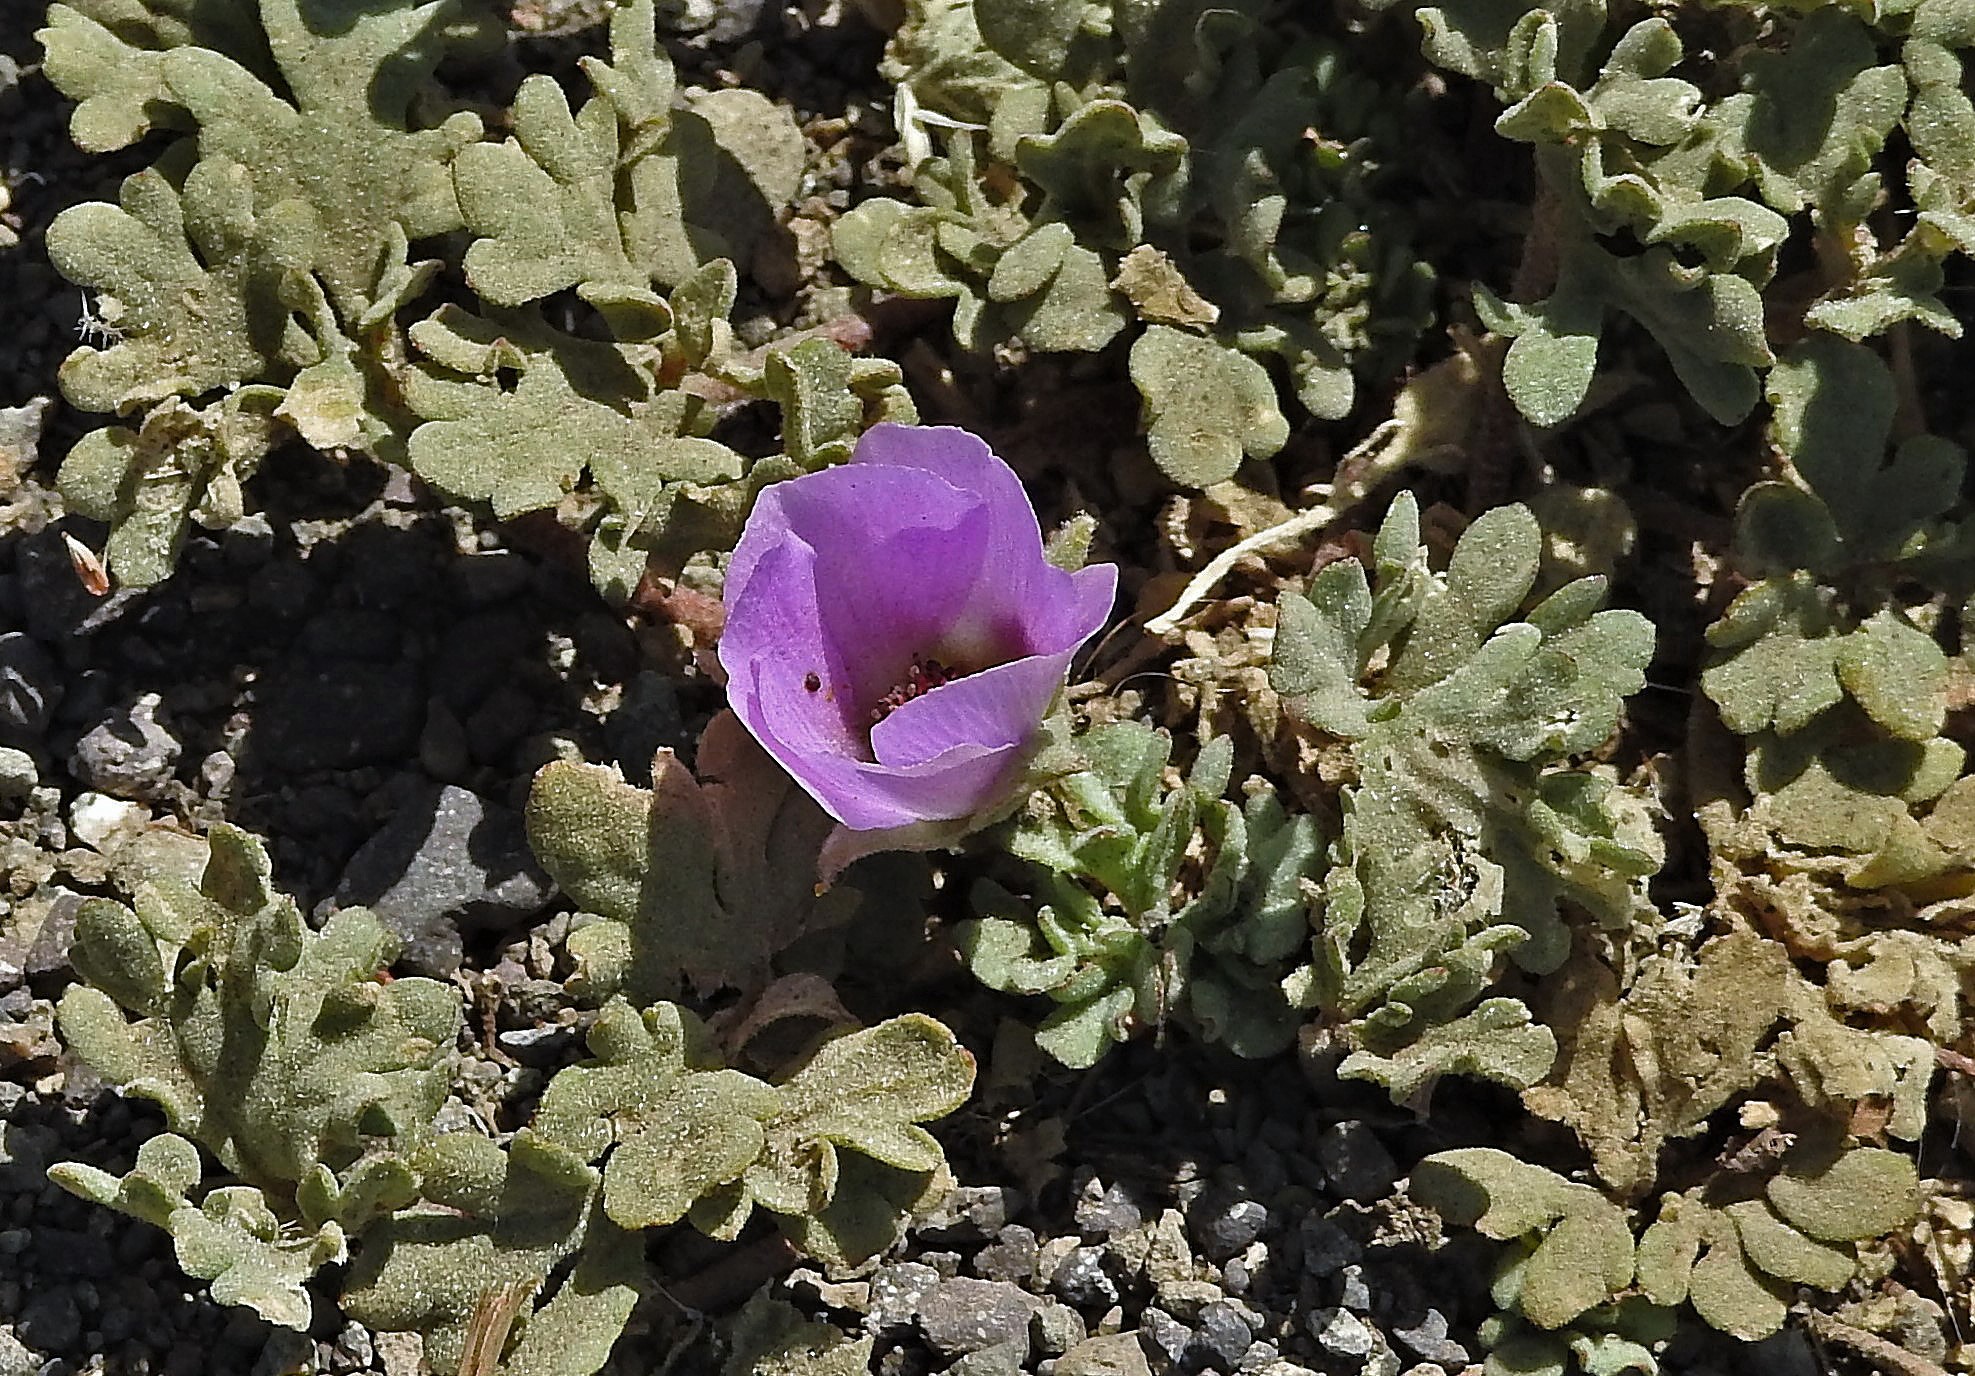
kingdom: Plantae
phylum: Tracheophyta
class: Magnoliopsida
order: Malvales
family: Malvaceae
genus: Lecanophora
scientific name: Lecanophora ameghinoi
